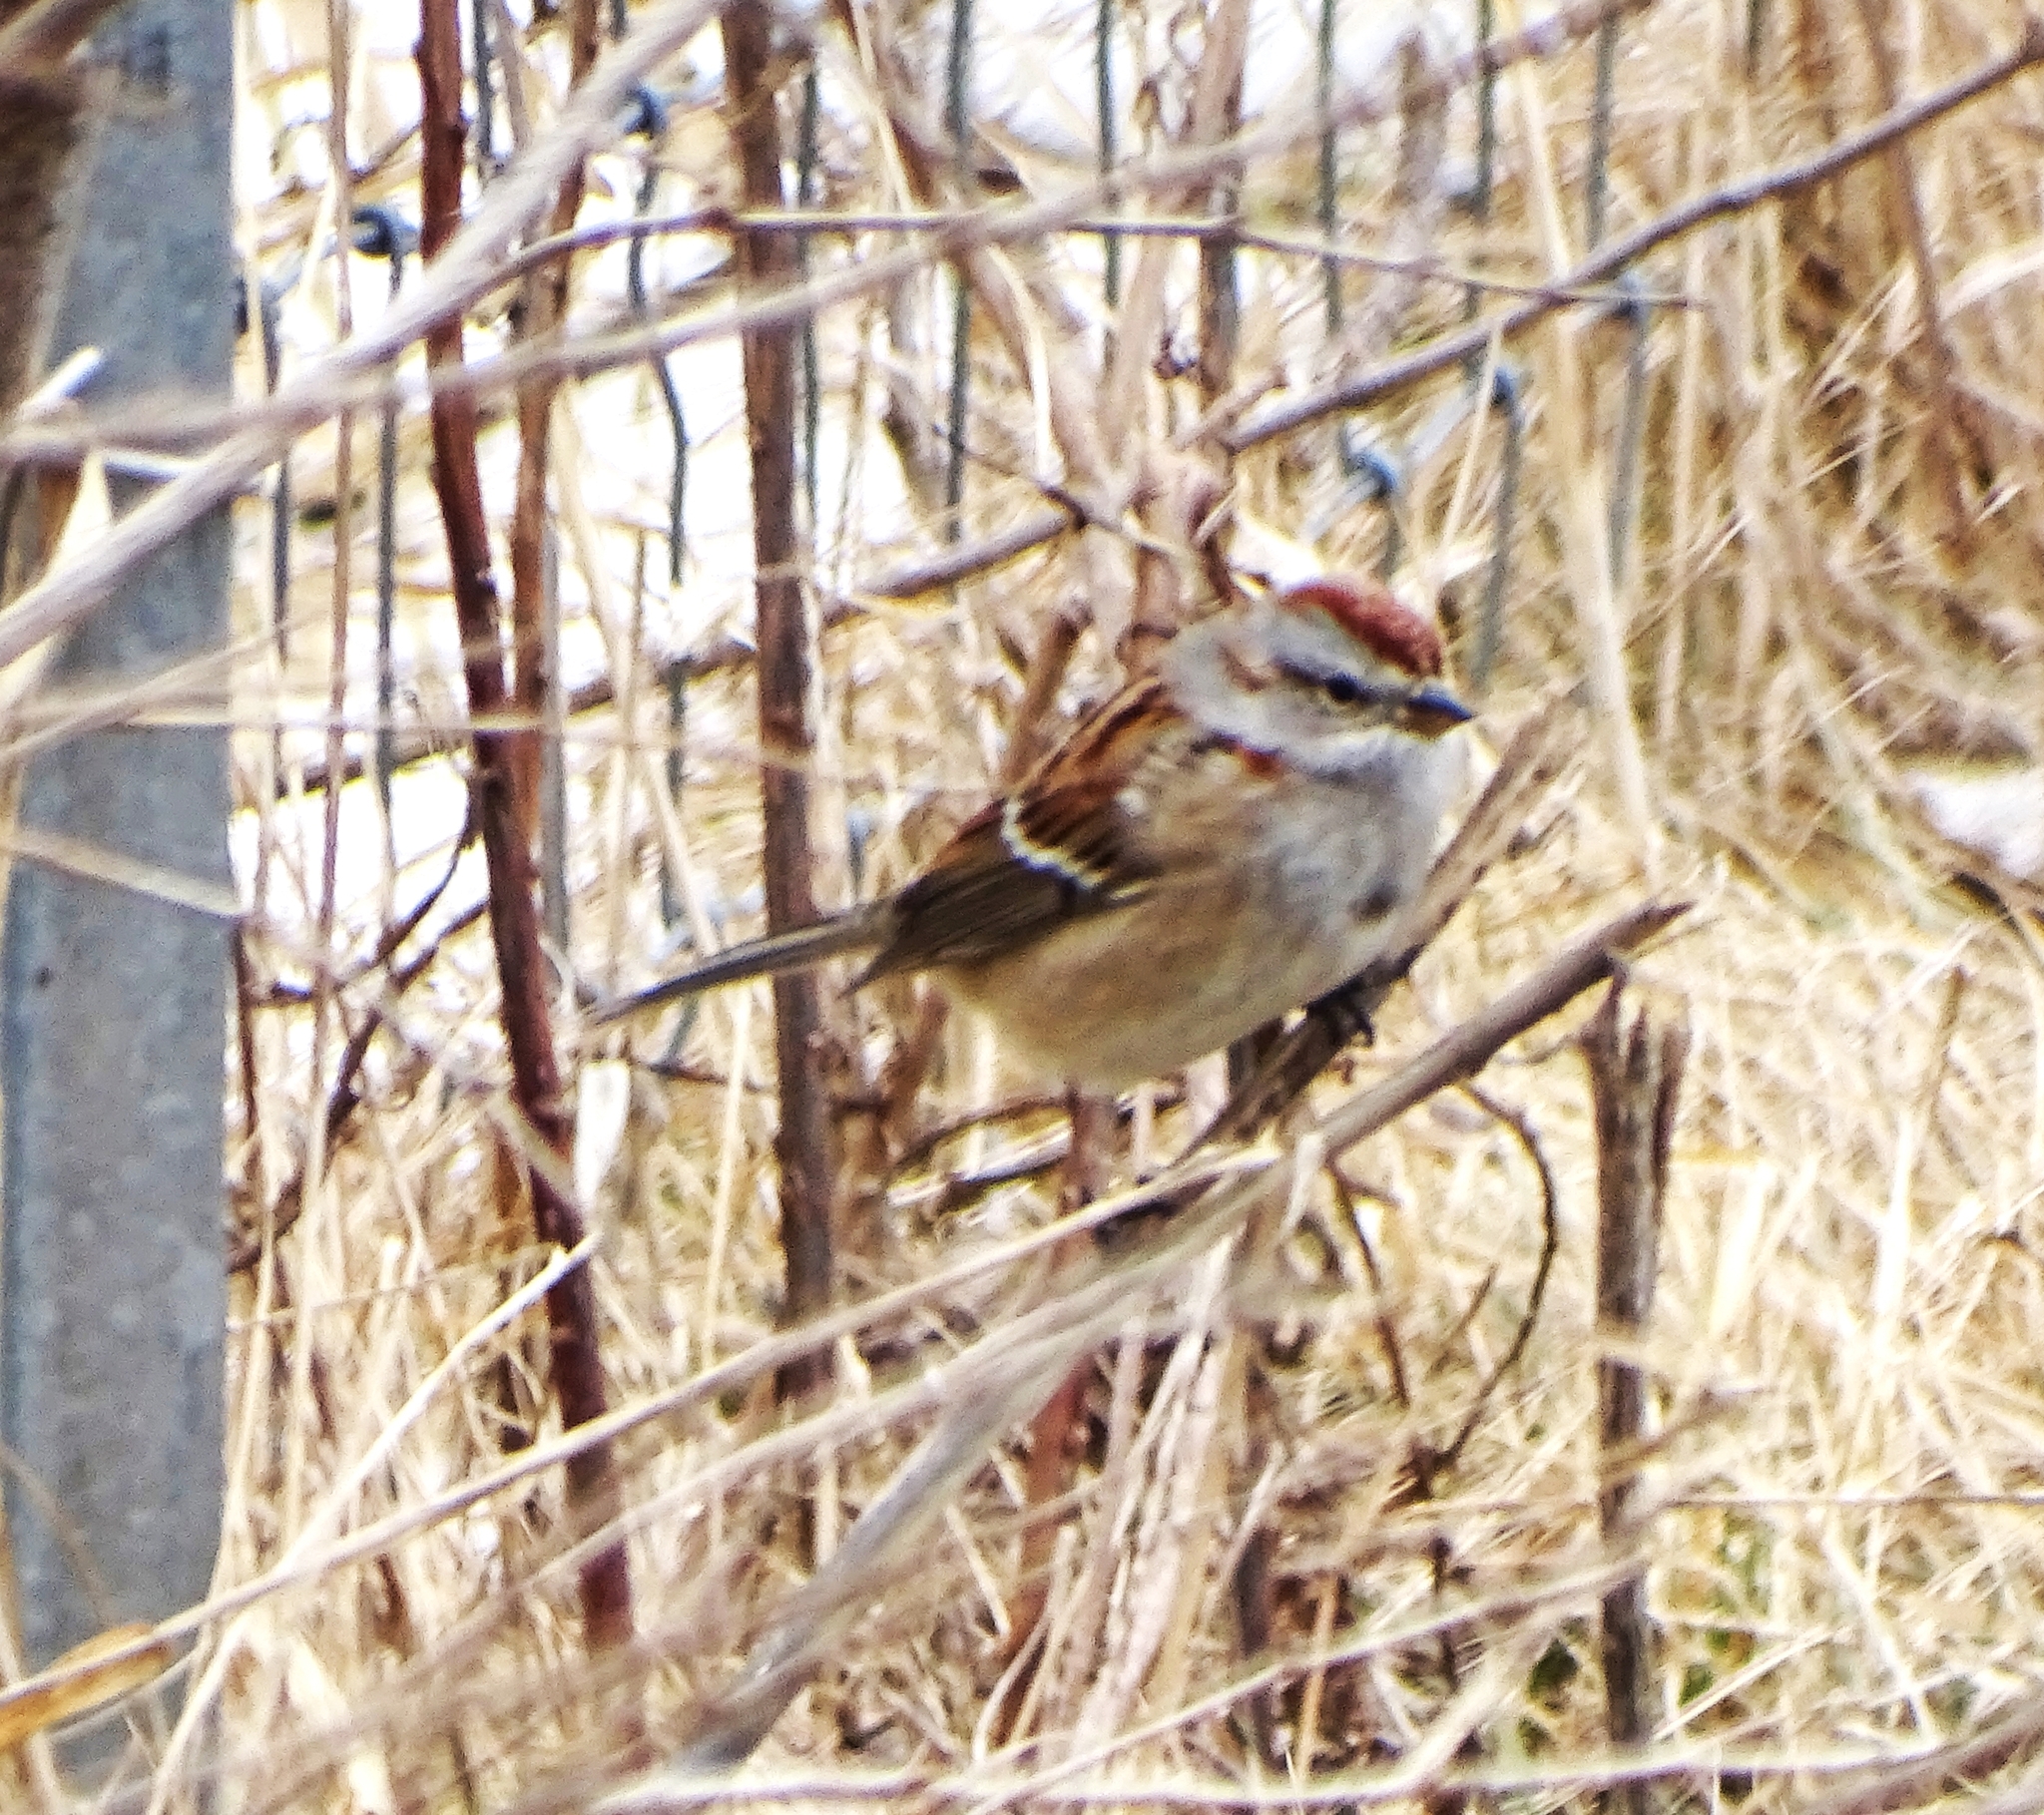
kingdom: Animalia
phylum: Chordata
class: Aves
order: Passeriformes
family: Passerellidae
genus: Spizelloides
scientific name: Spizelloides arborea
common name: American tree sparrow
